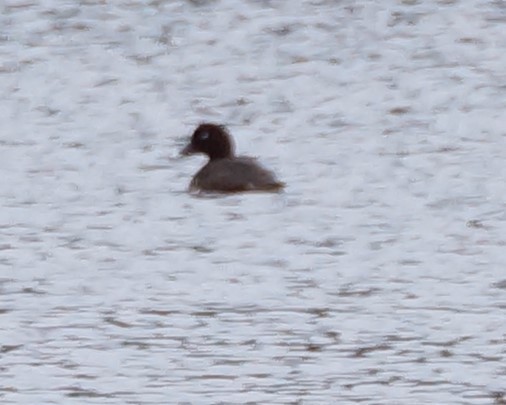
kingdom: Animalia
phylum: Chordata
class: Aves
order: Anseriformes
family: Anatidae
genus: Aythya
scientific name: Aythya australis
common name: Hardhead
